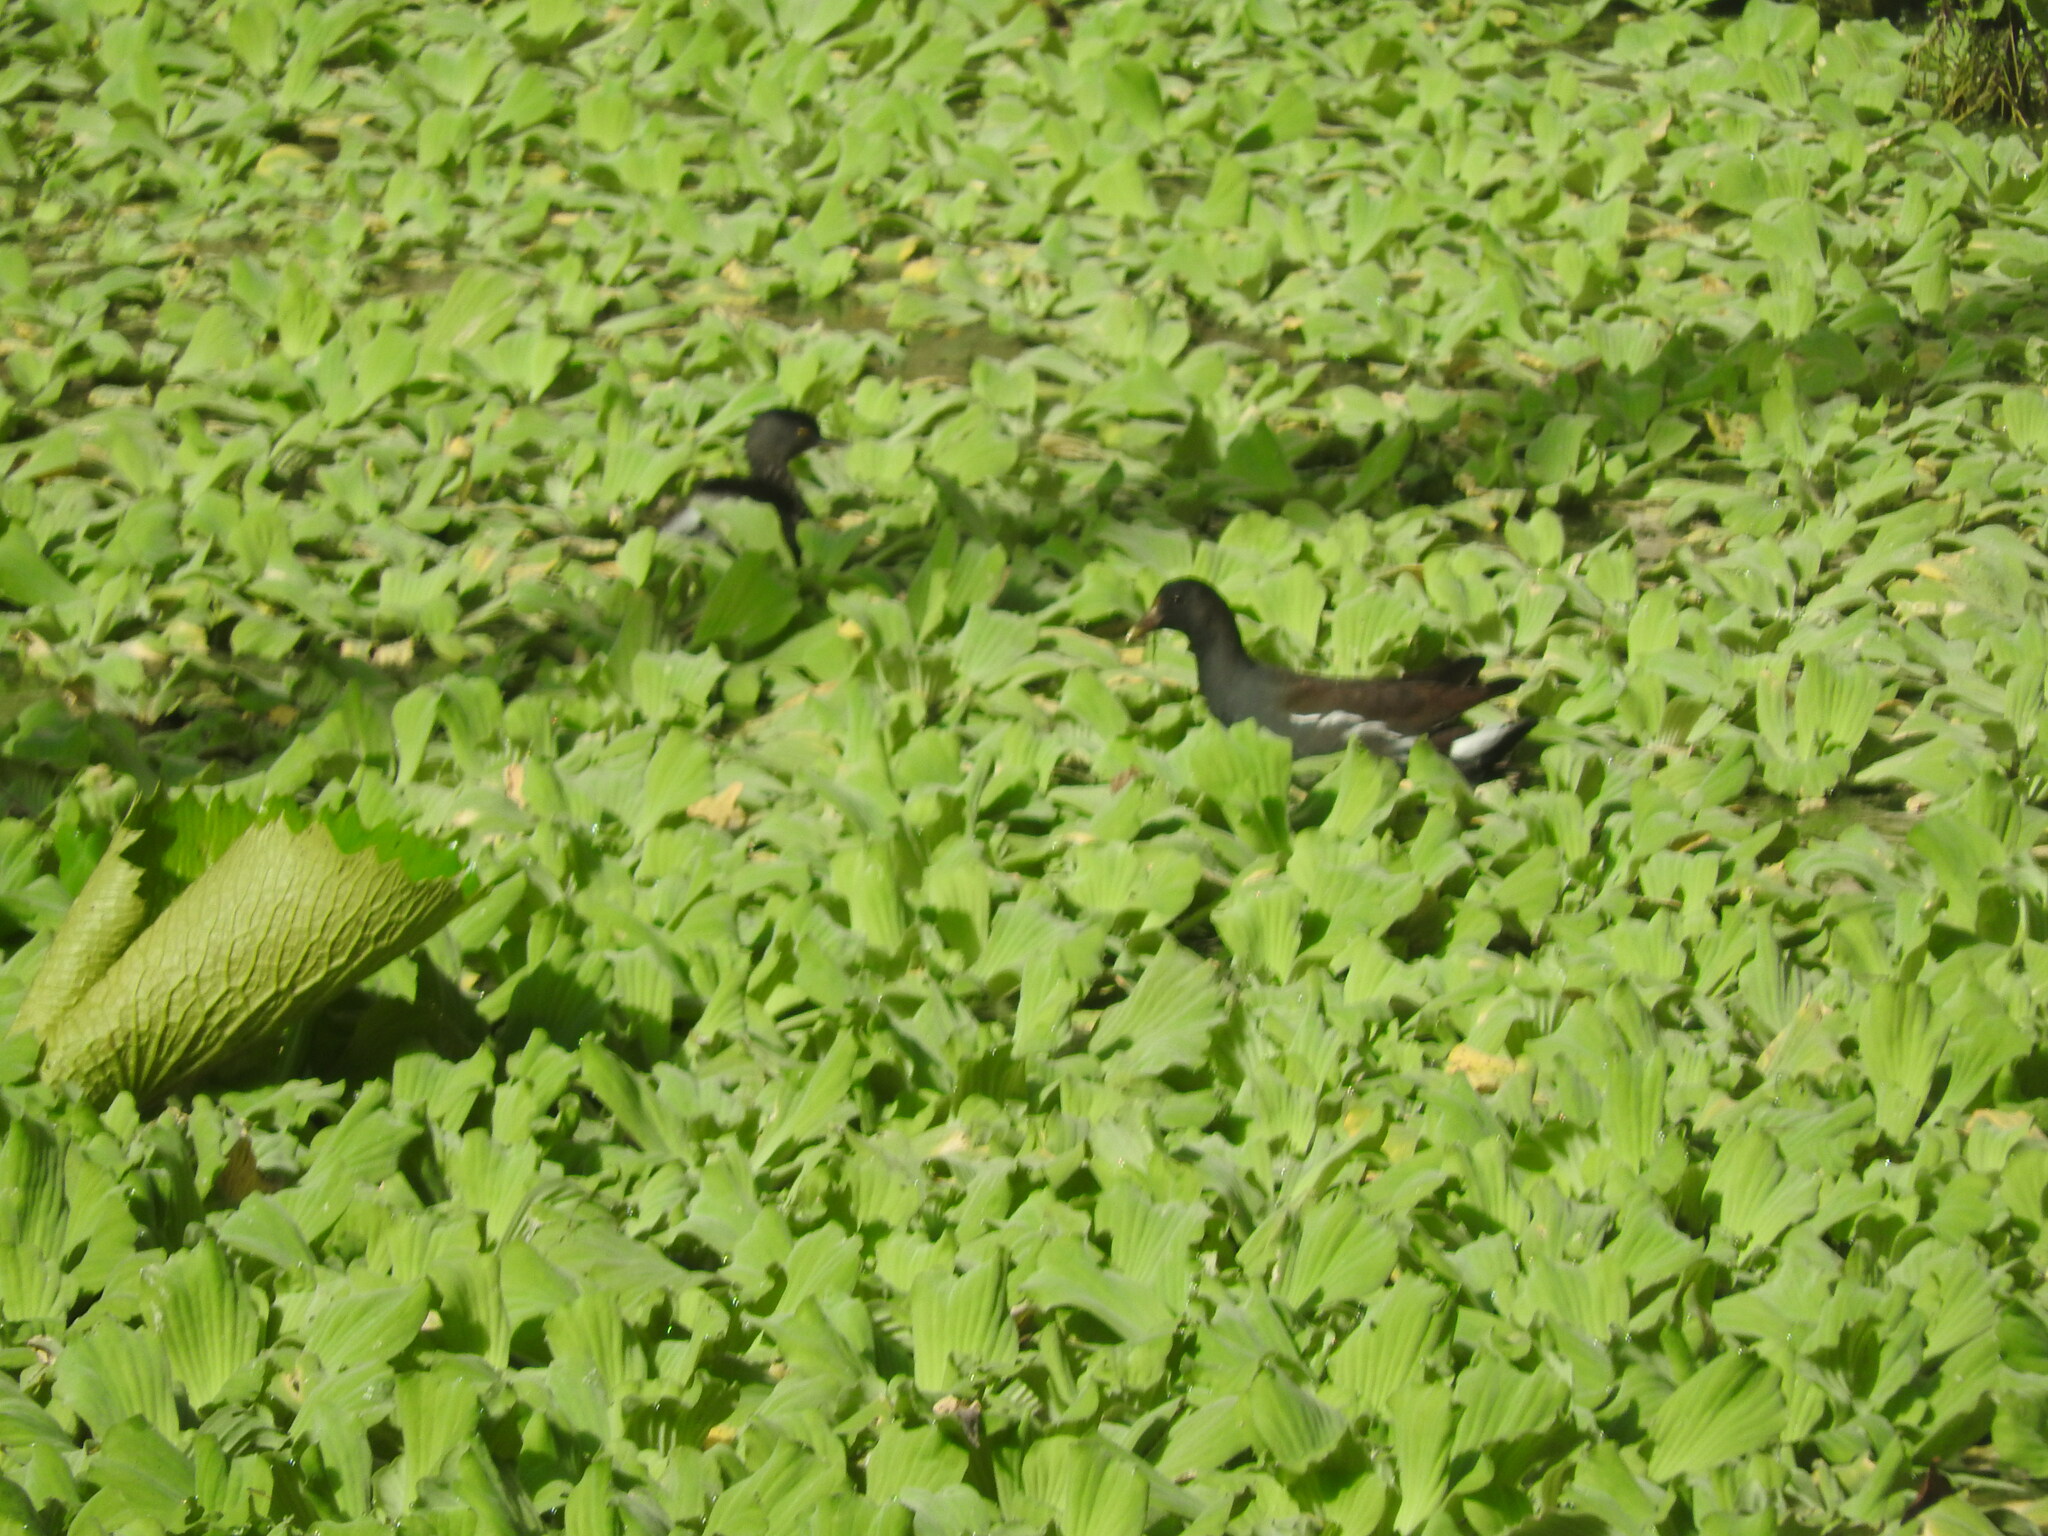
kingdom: Animalia
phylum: Chordata
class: Aves
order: Gruiformes
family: Rallidae
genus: Gallinula
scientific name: Gallinula chloropus
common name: Common moorhen
